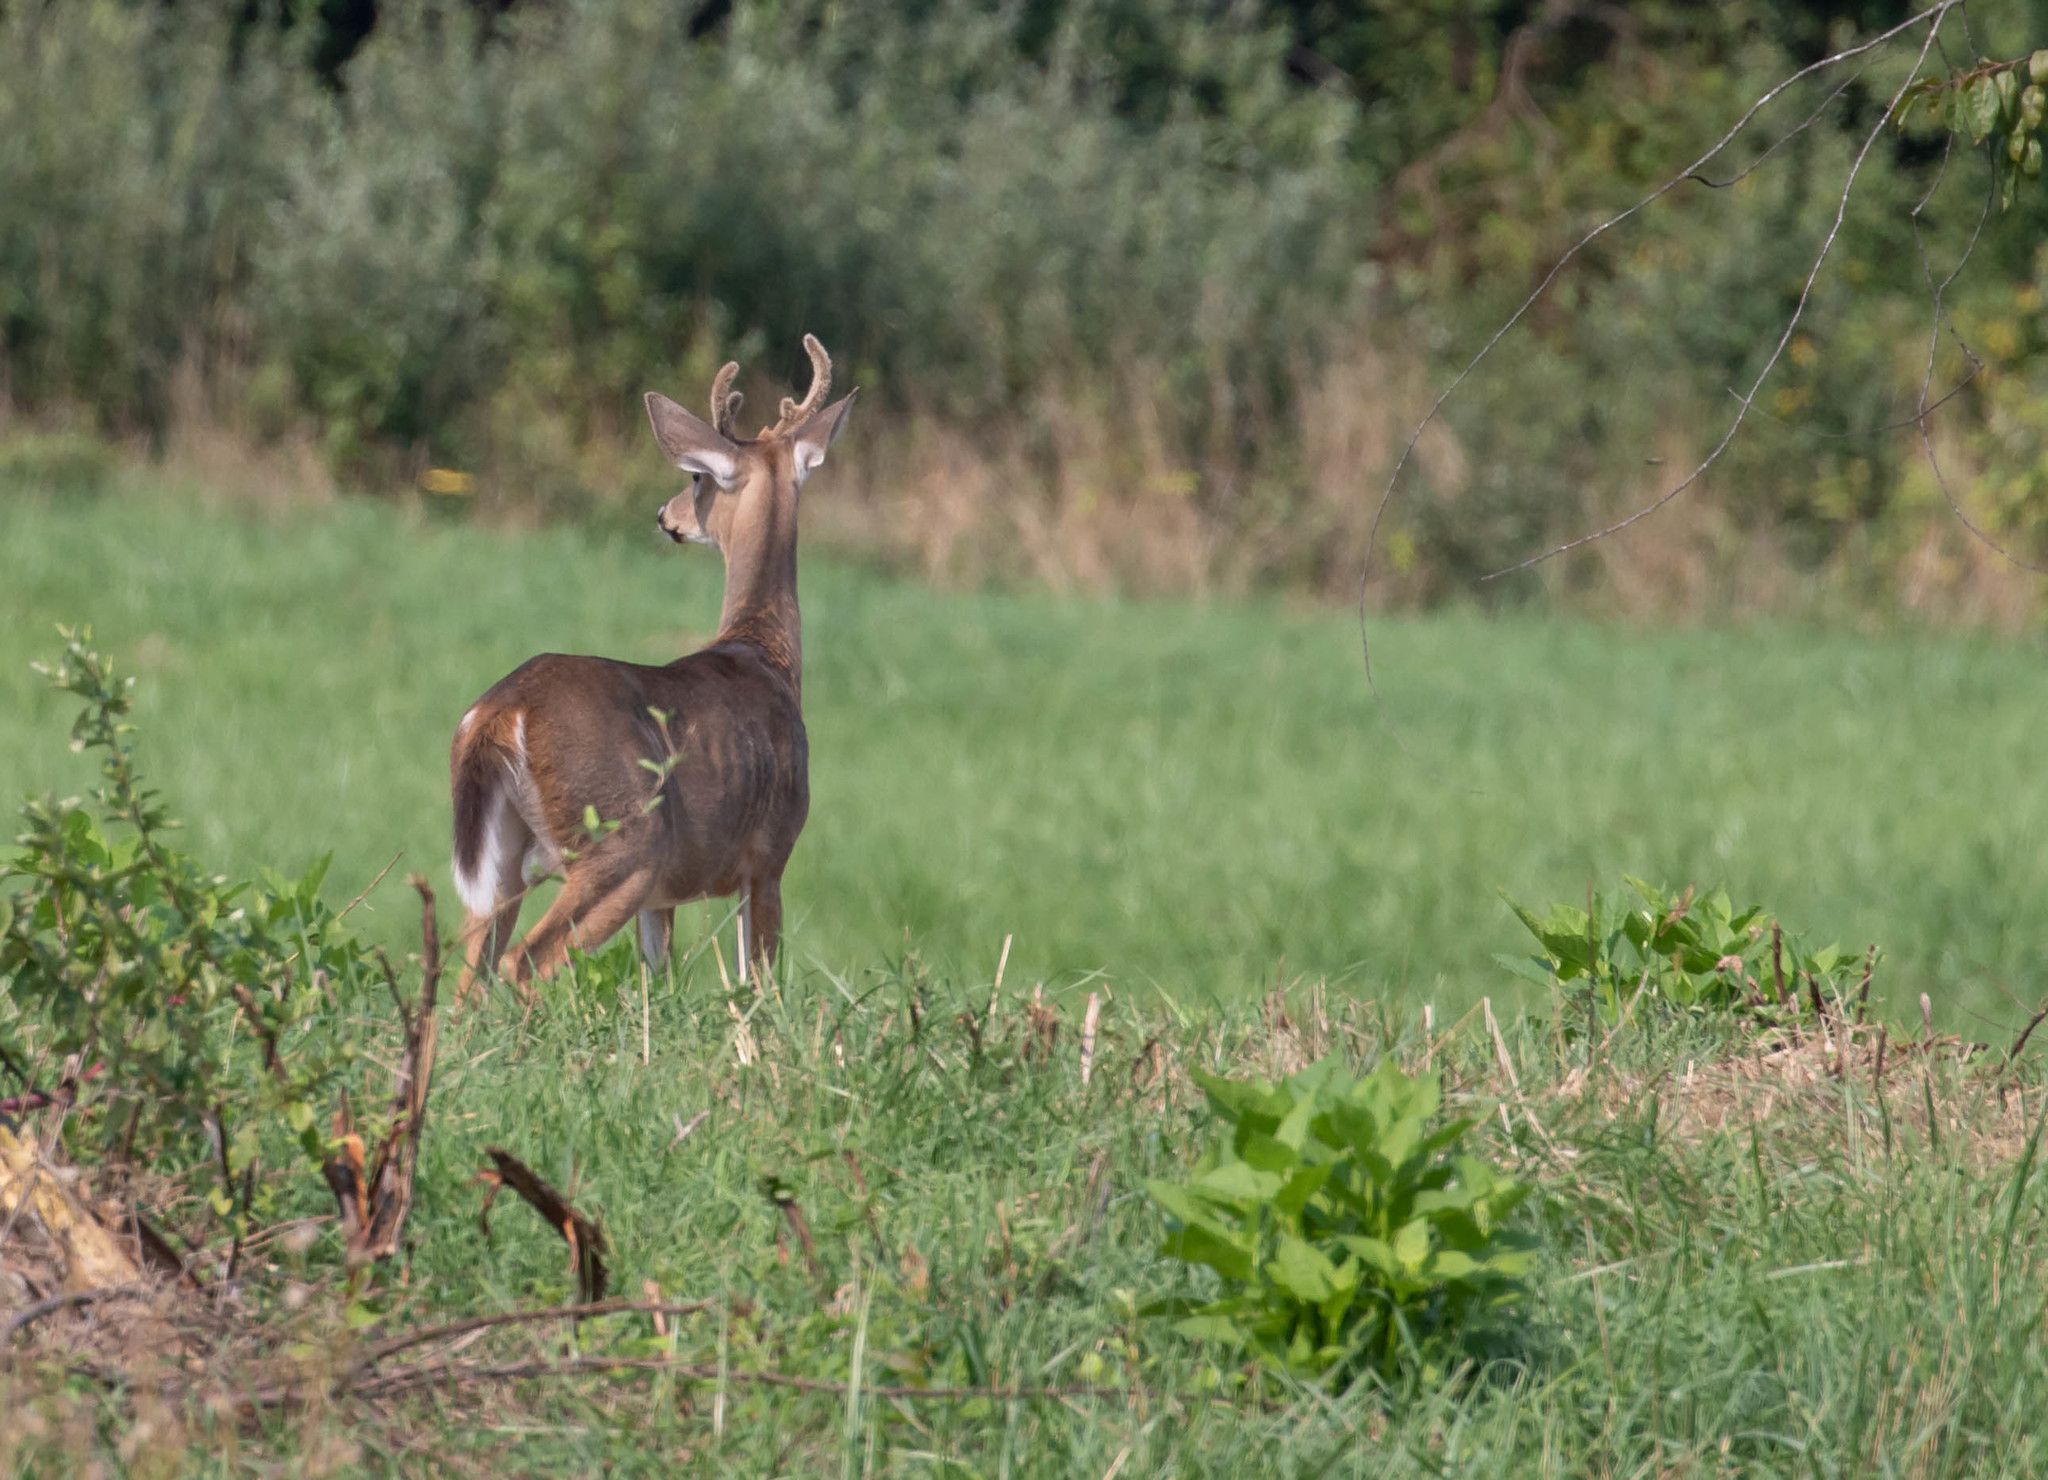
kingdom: Animalia
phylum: Chordata
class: Mammalia
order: Artiodactyla
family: Cervidae
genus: Odocoileus
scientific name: Odocoileus virginianus
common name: White-tailed deer
